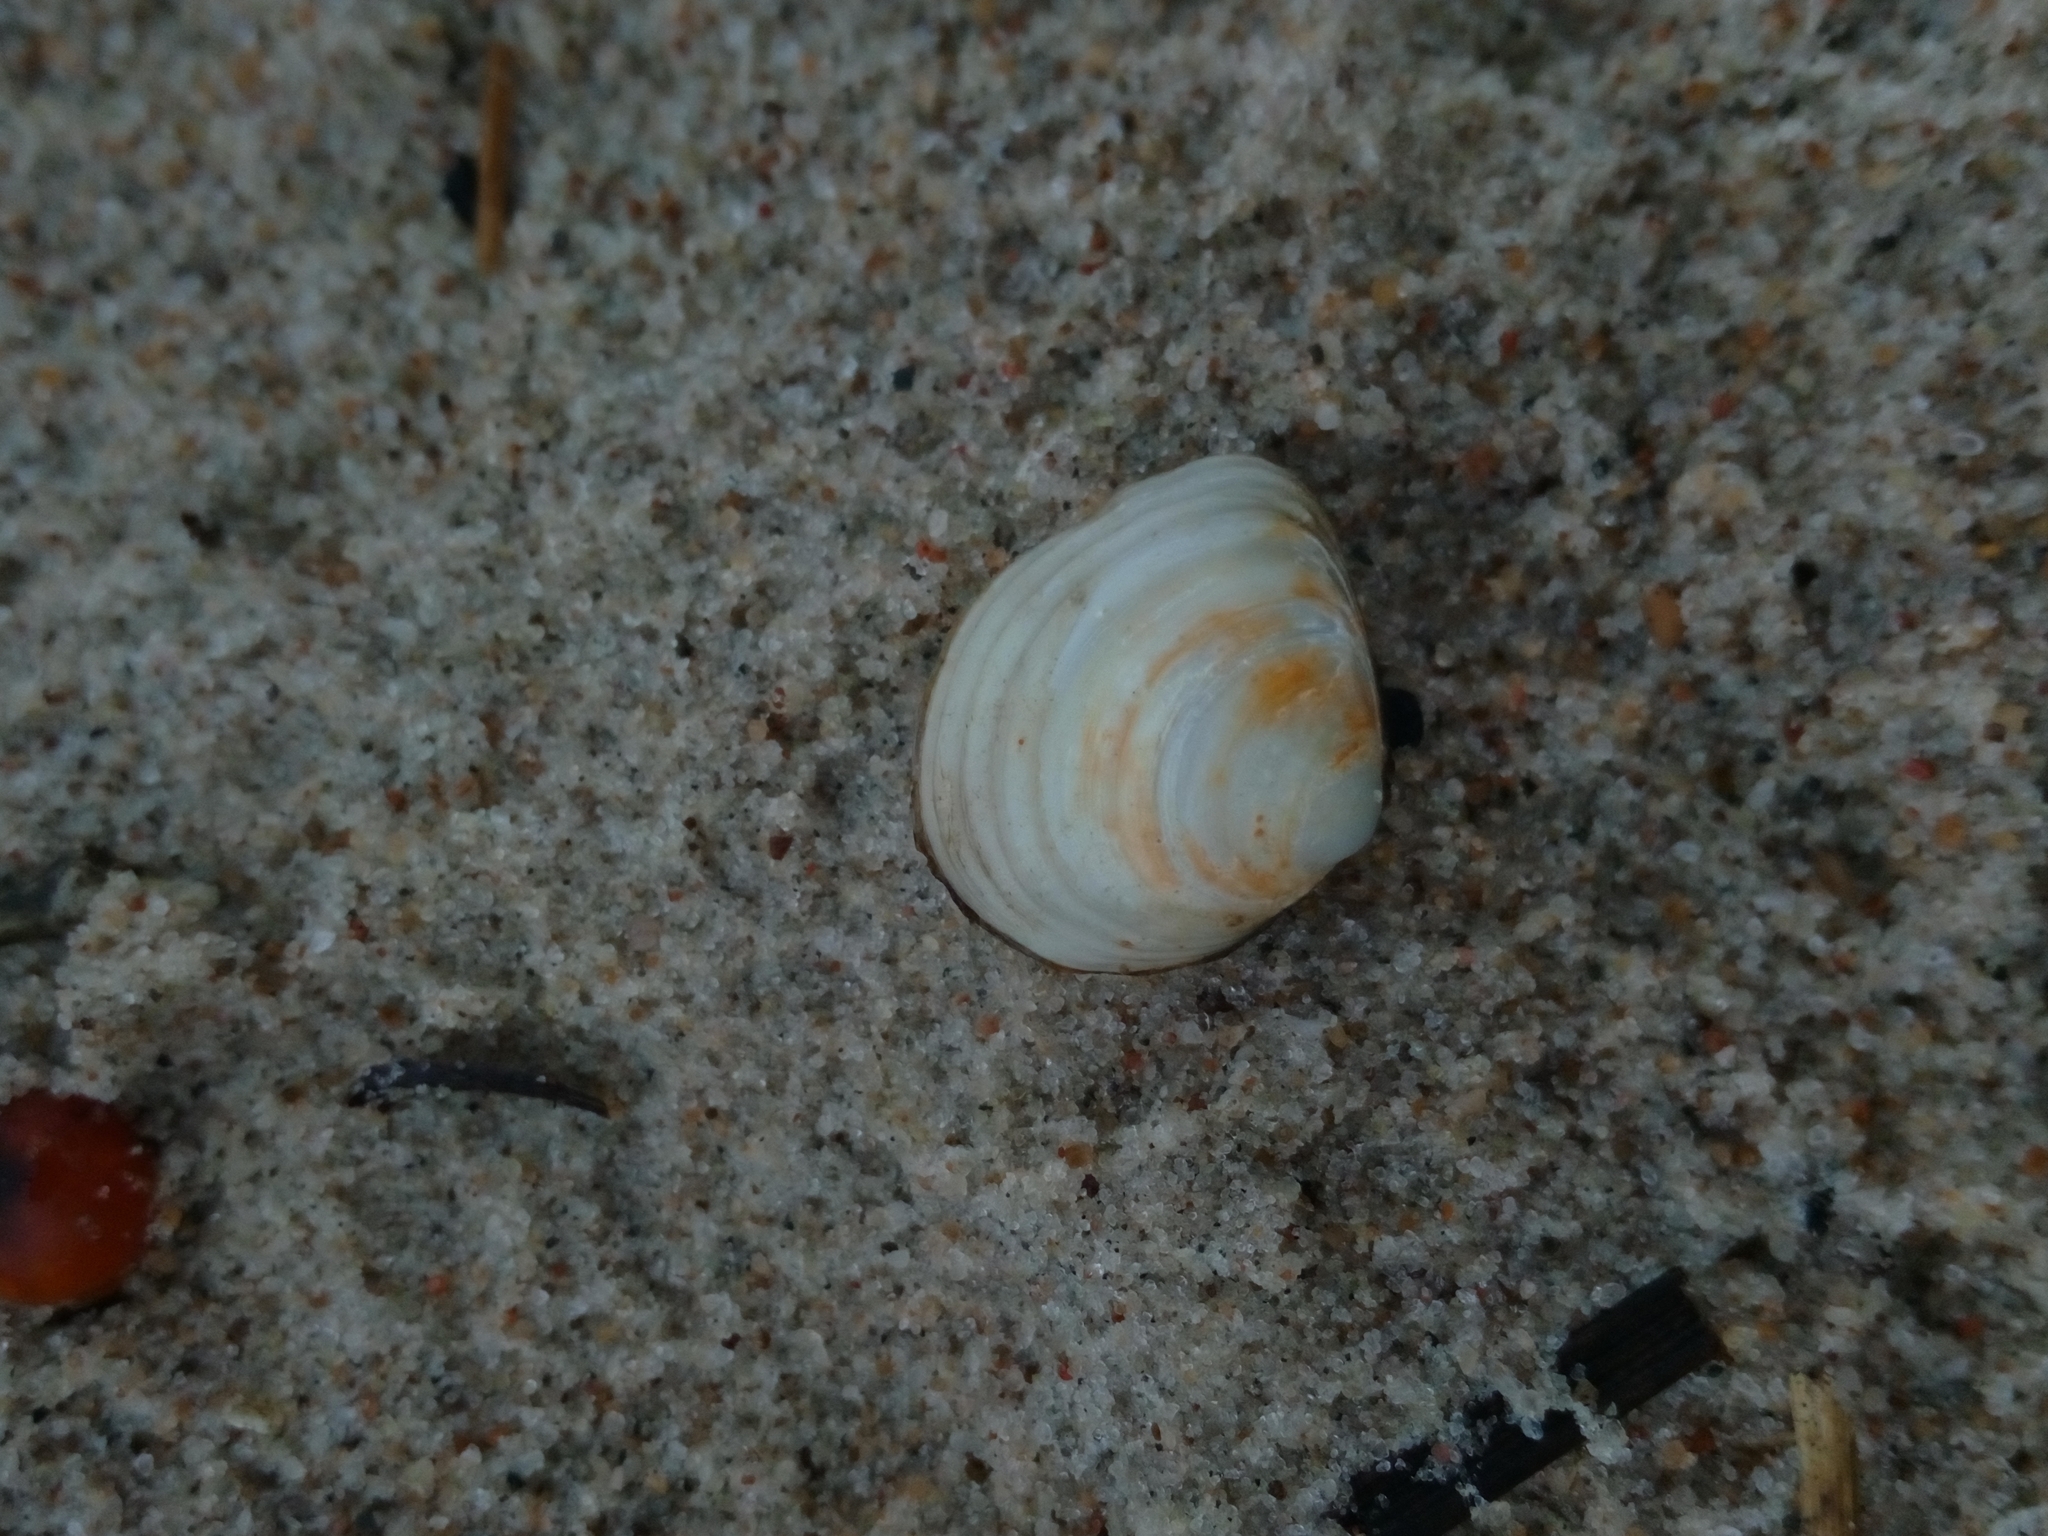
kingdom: Animalia
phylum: Mollusca
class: Bivalvia
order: Cardiida
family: Tellinidae
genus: Macoma
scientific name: Macoma balthica
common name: Baltic tellin
